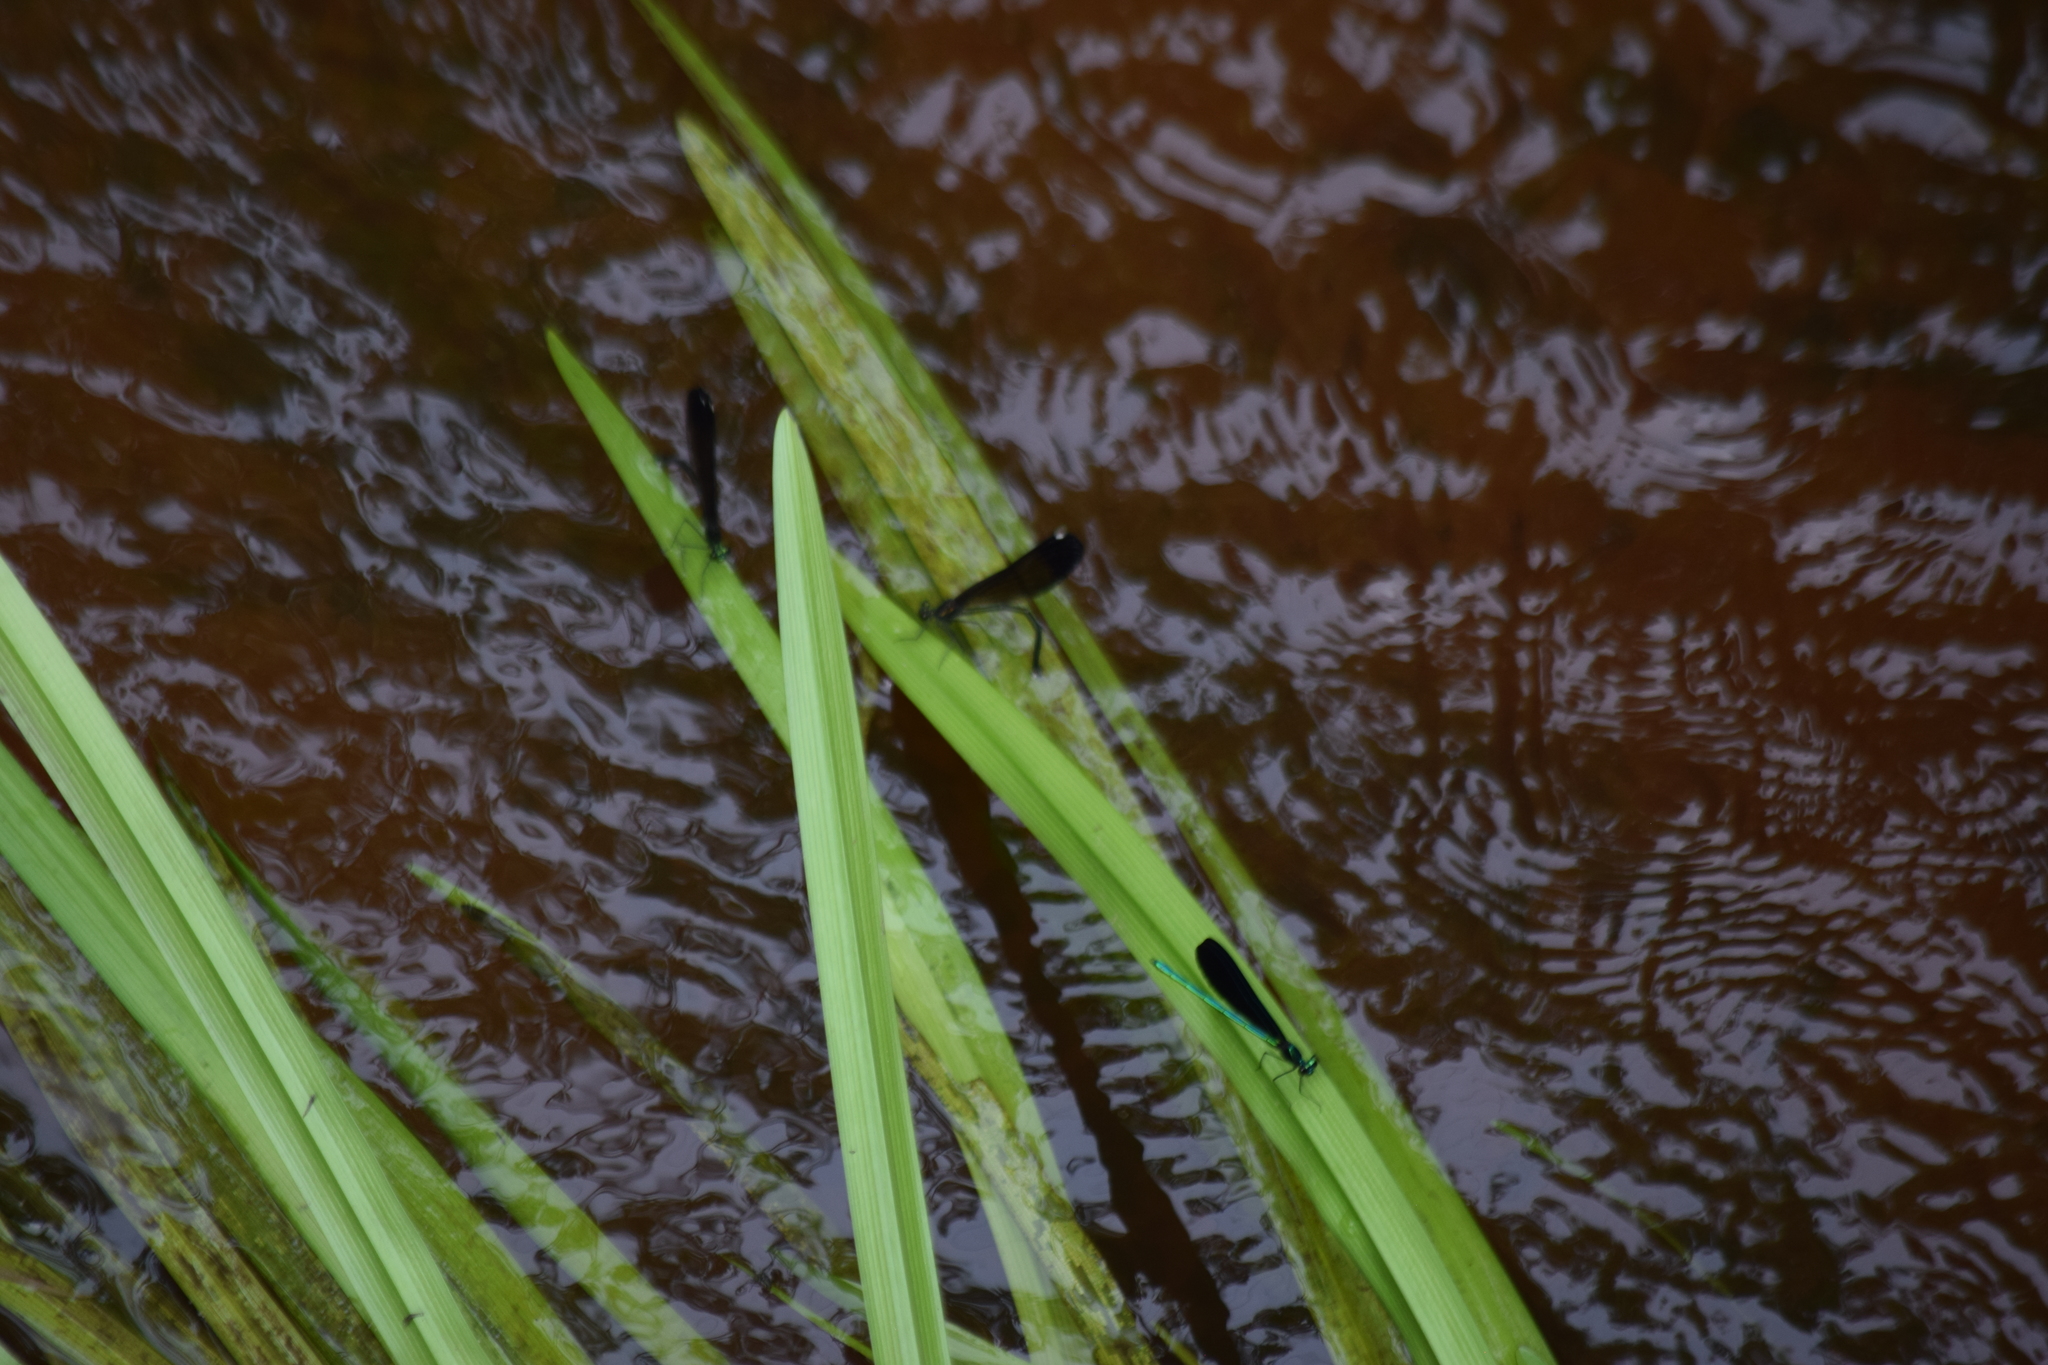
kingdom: Animalia
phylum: Arthropoda
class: Insecta
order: Odonata
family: Calopterygidae
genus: Calopteryx
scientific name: Calopteryx maculata
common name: Ebony jewelwing
